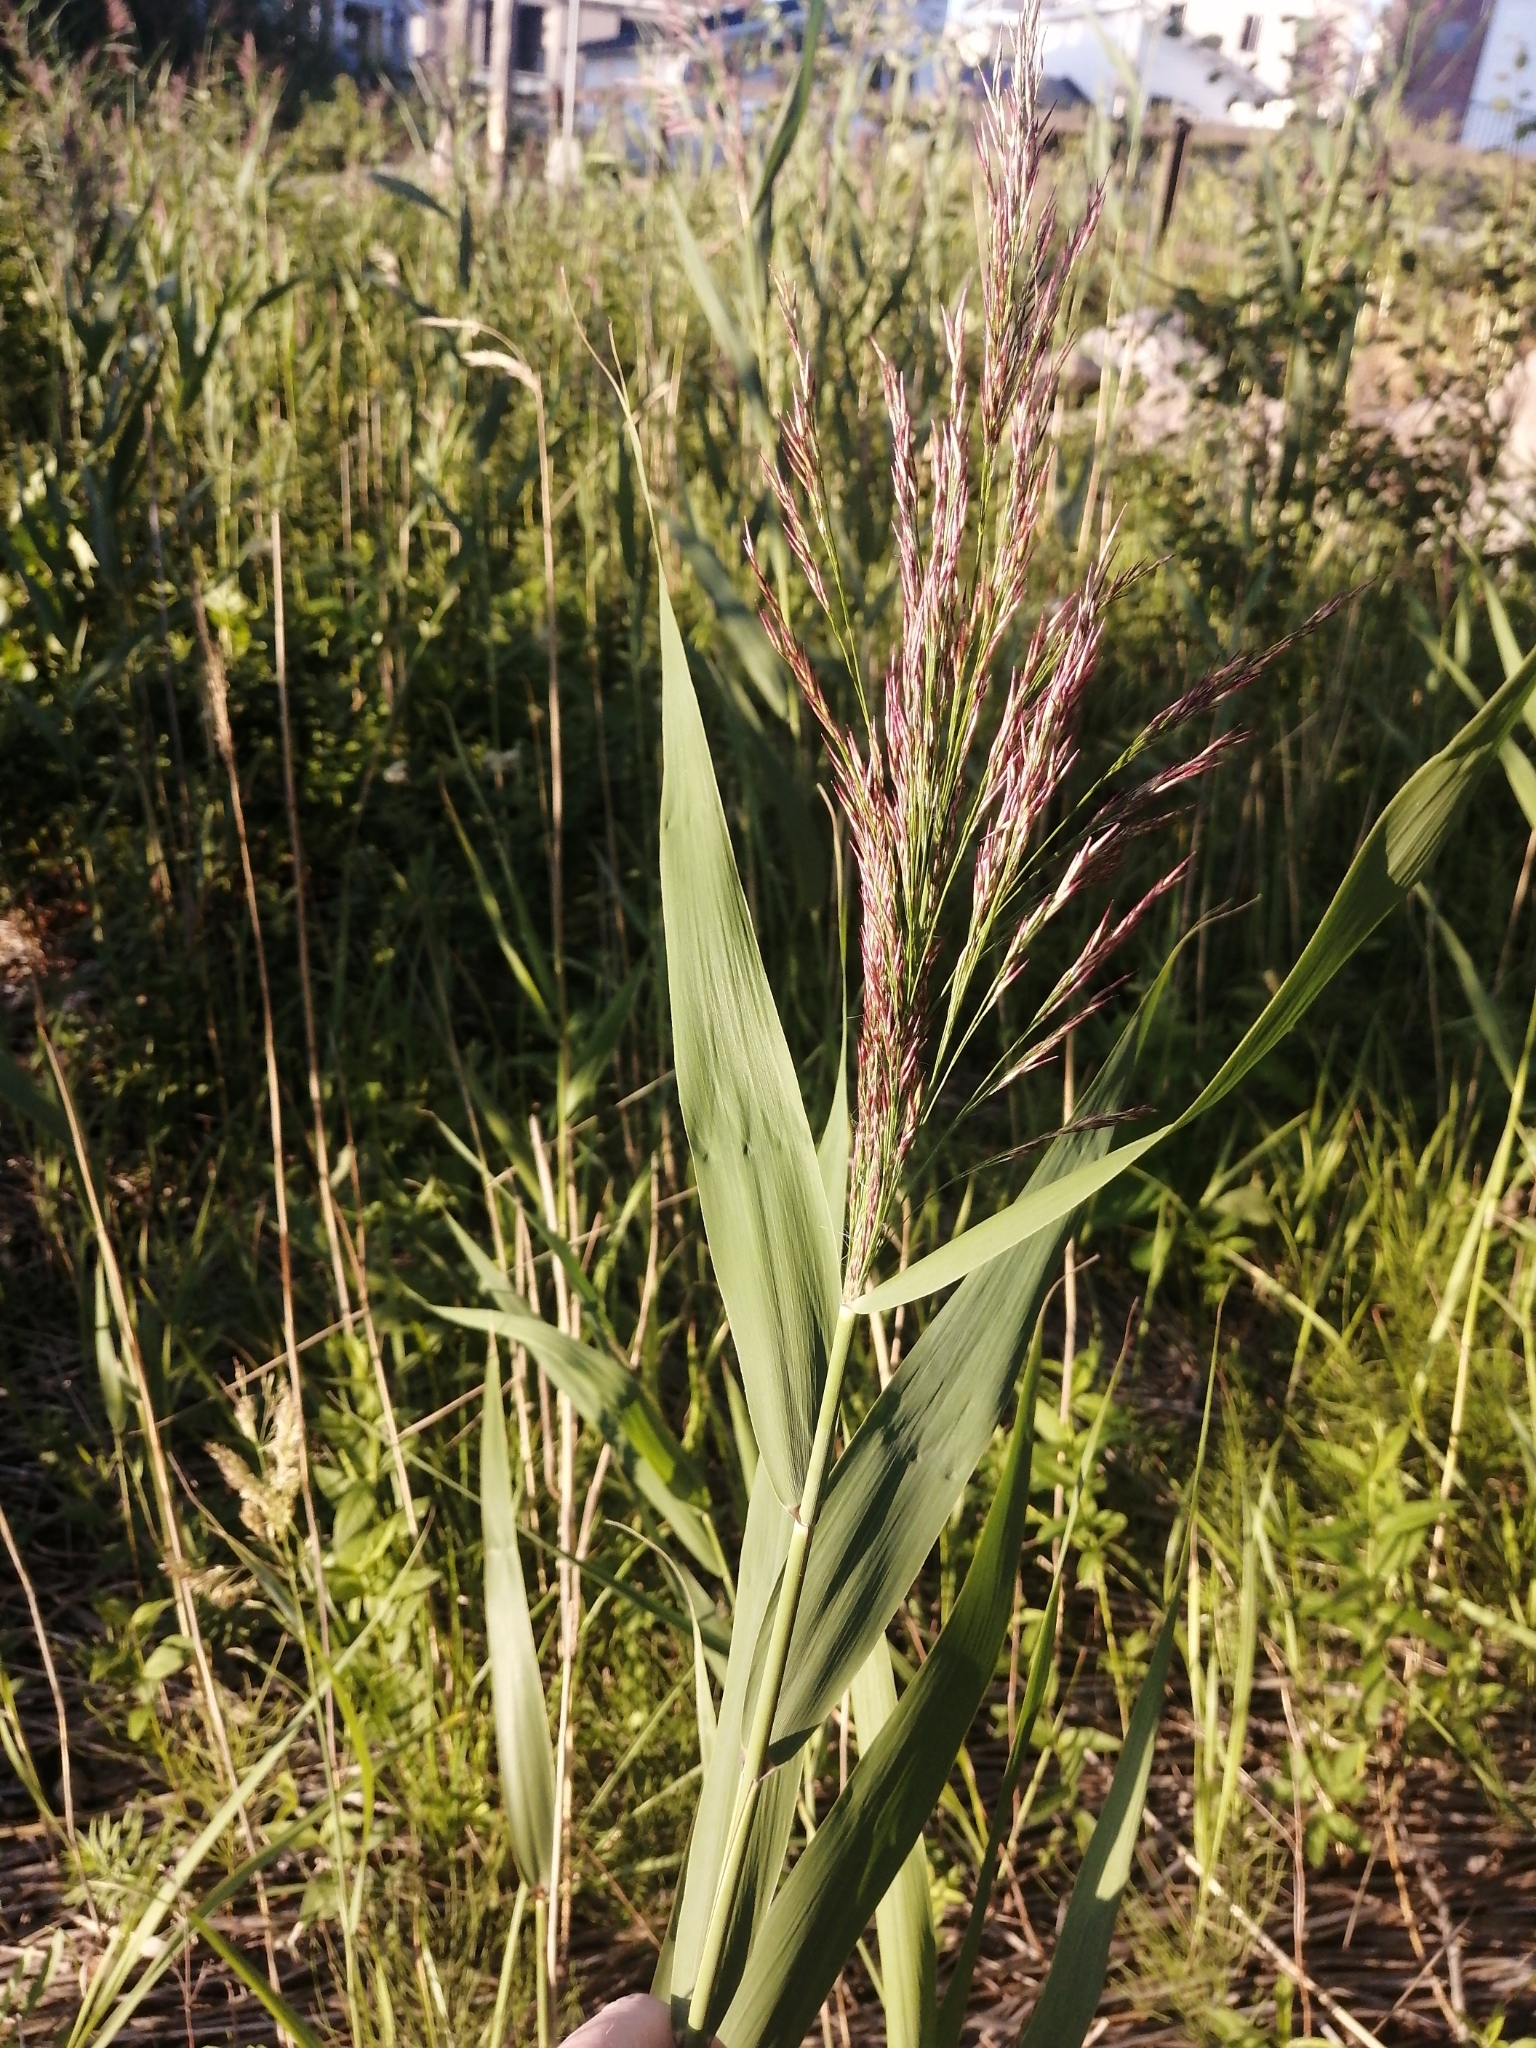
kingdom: Plantae
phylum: Tracheophyta
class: Liliopsida
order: Poales
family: Poaceae
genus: Phragmites
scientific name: Phragmites australis
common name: Common reed
